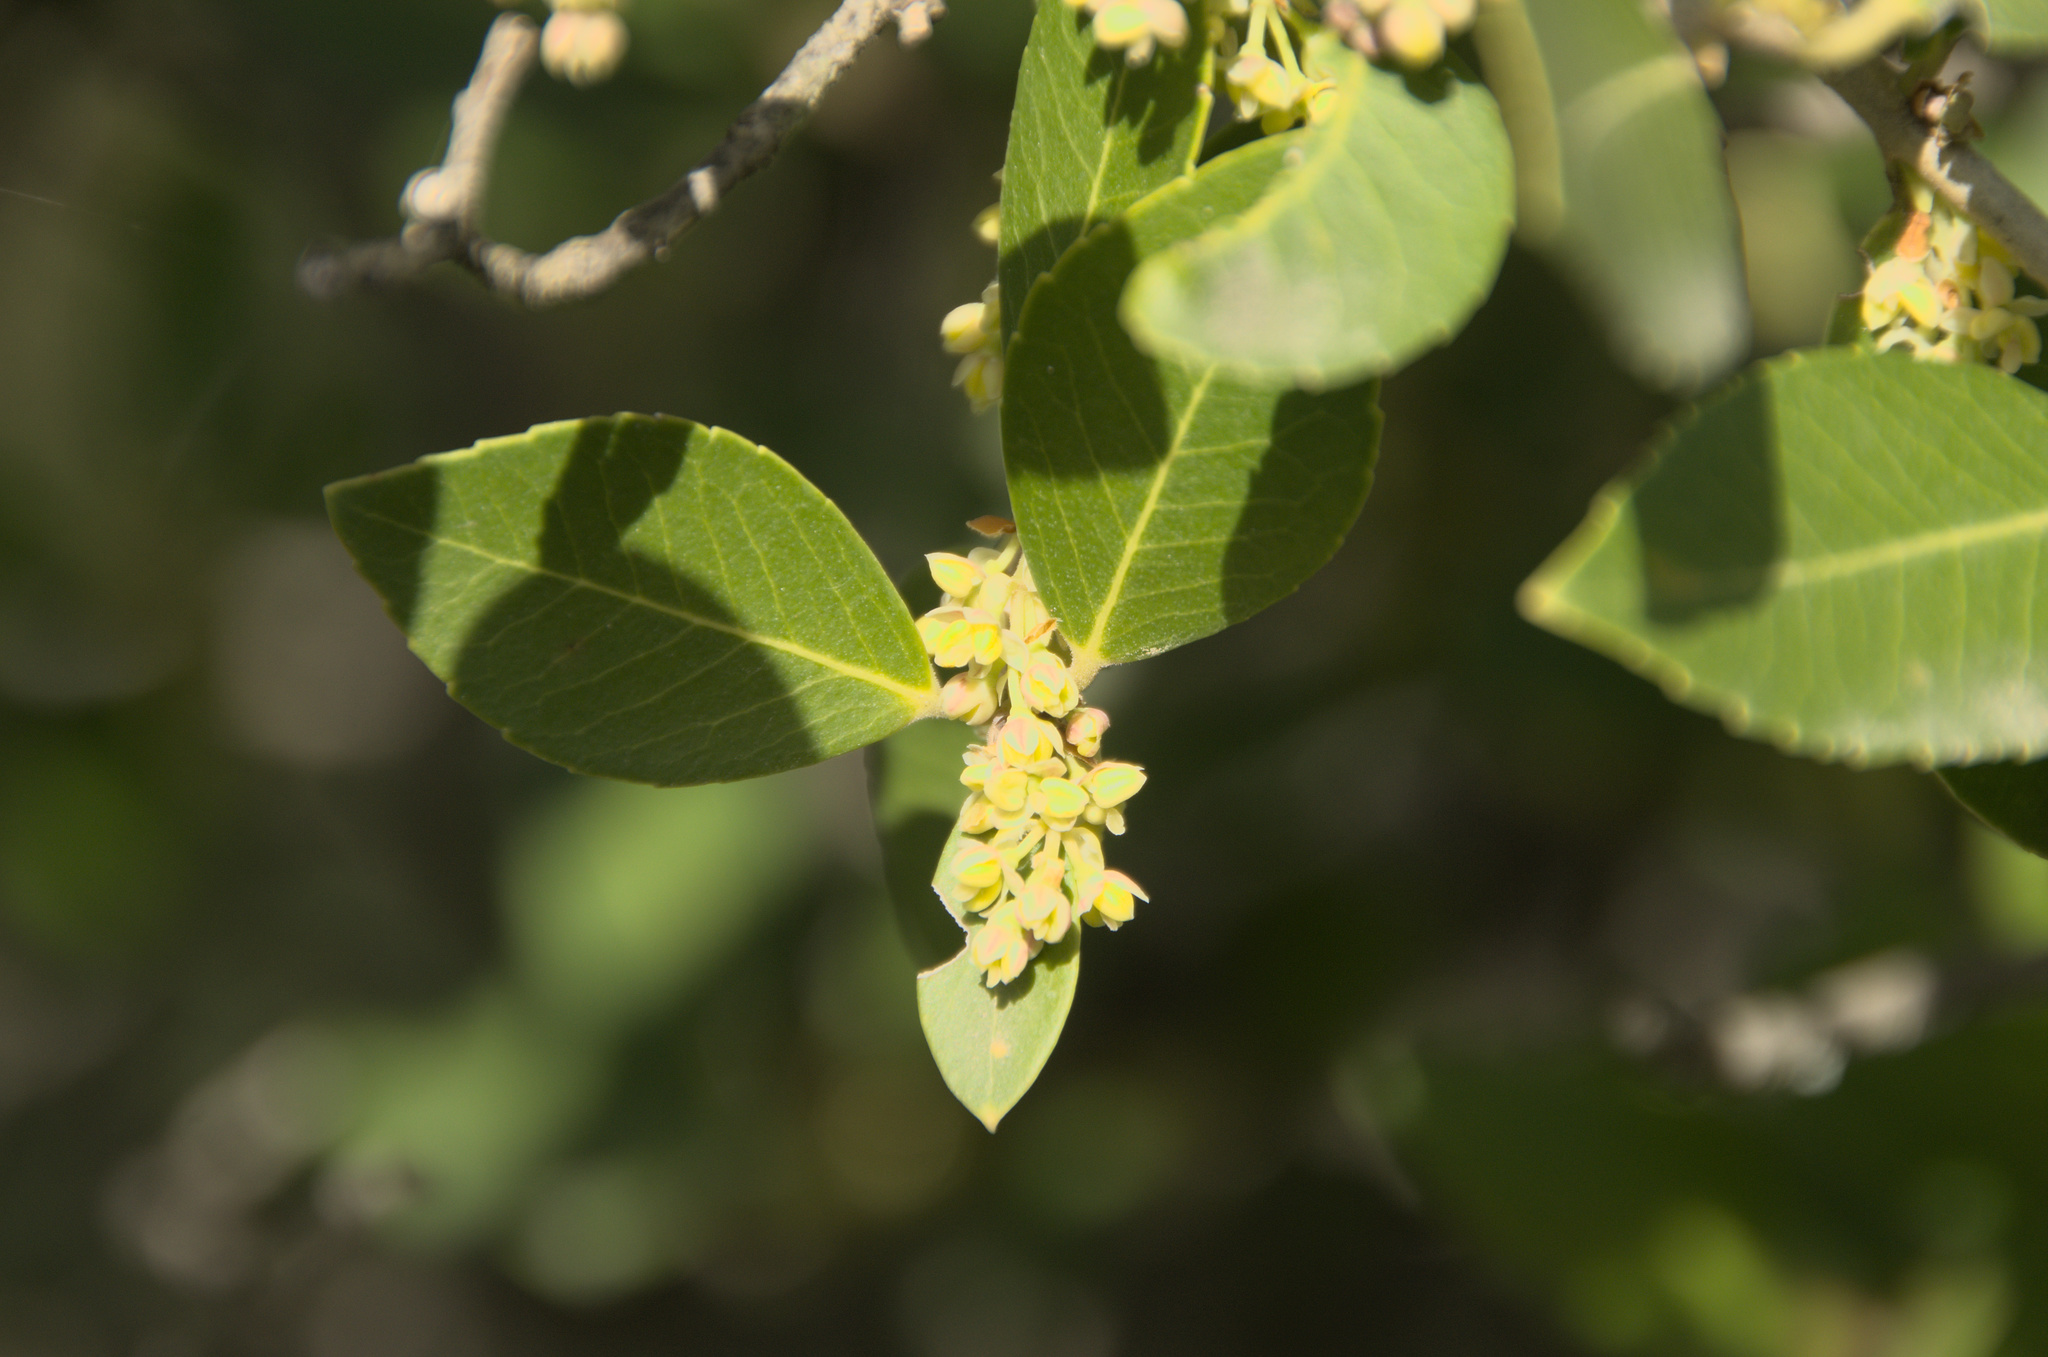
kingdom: Plantae
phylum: Tracheophyta
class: Magnoliopsida
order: Lamiales
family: Oleaceae
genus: Phillyrea
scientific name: Phillyrea latifolia
